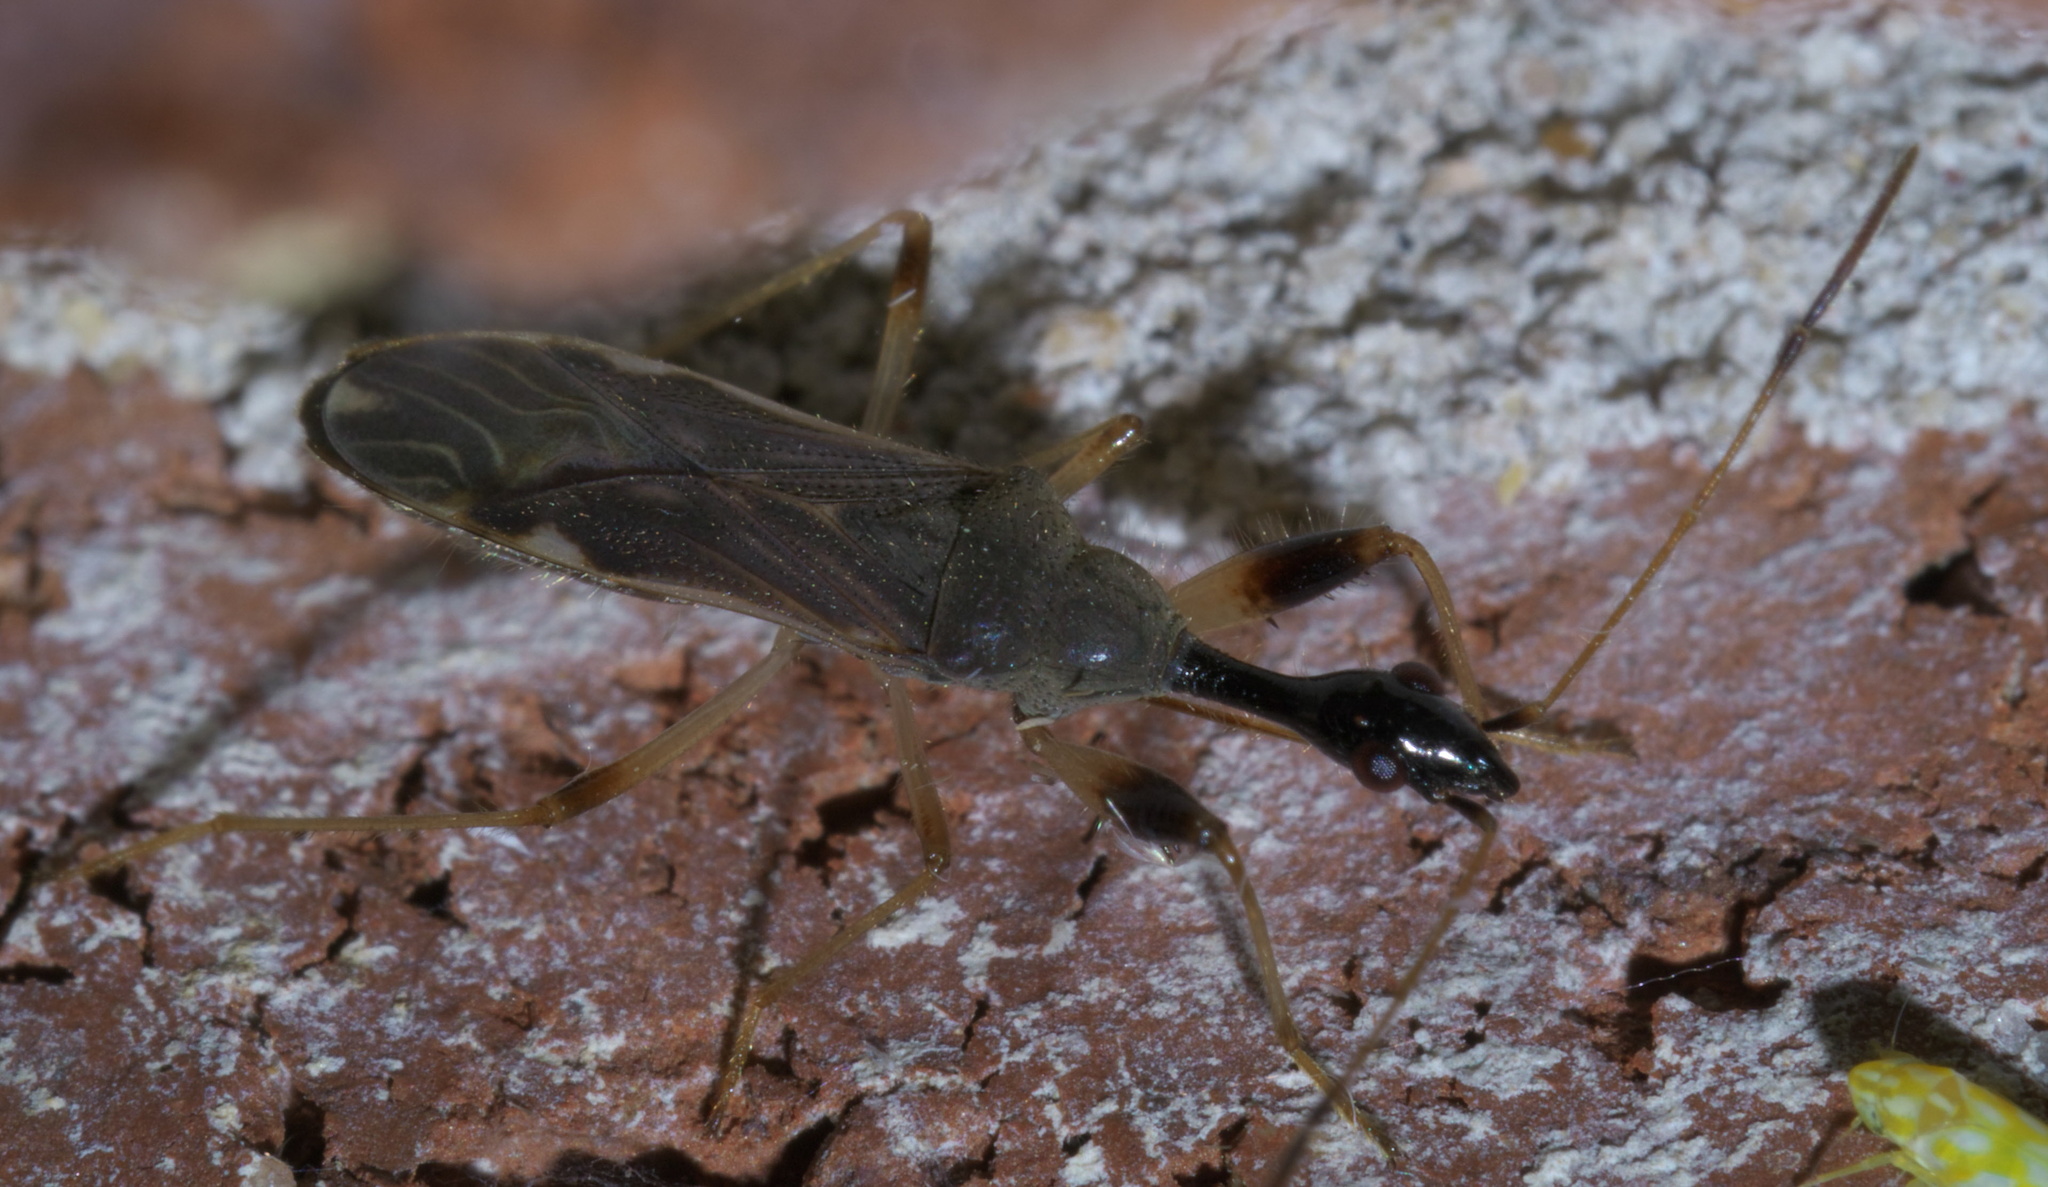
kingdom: Animalia
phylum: Arthropoda
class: Insecta
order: Hemiptera
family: Rhyparochromidae
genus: Myodocha
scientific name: Myodocha serripes
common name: Long-necked seed bug
